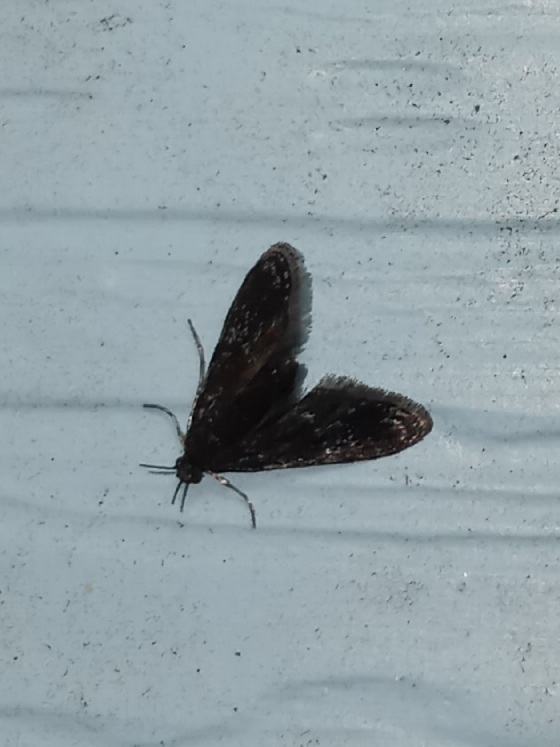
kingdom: Animalia
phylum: Arthropoda
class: Insecta
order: Lepidoptera
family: Crambidae
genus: Elophila
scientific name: Elophila tinealis
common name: Black duckweed moth
